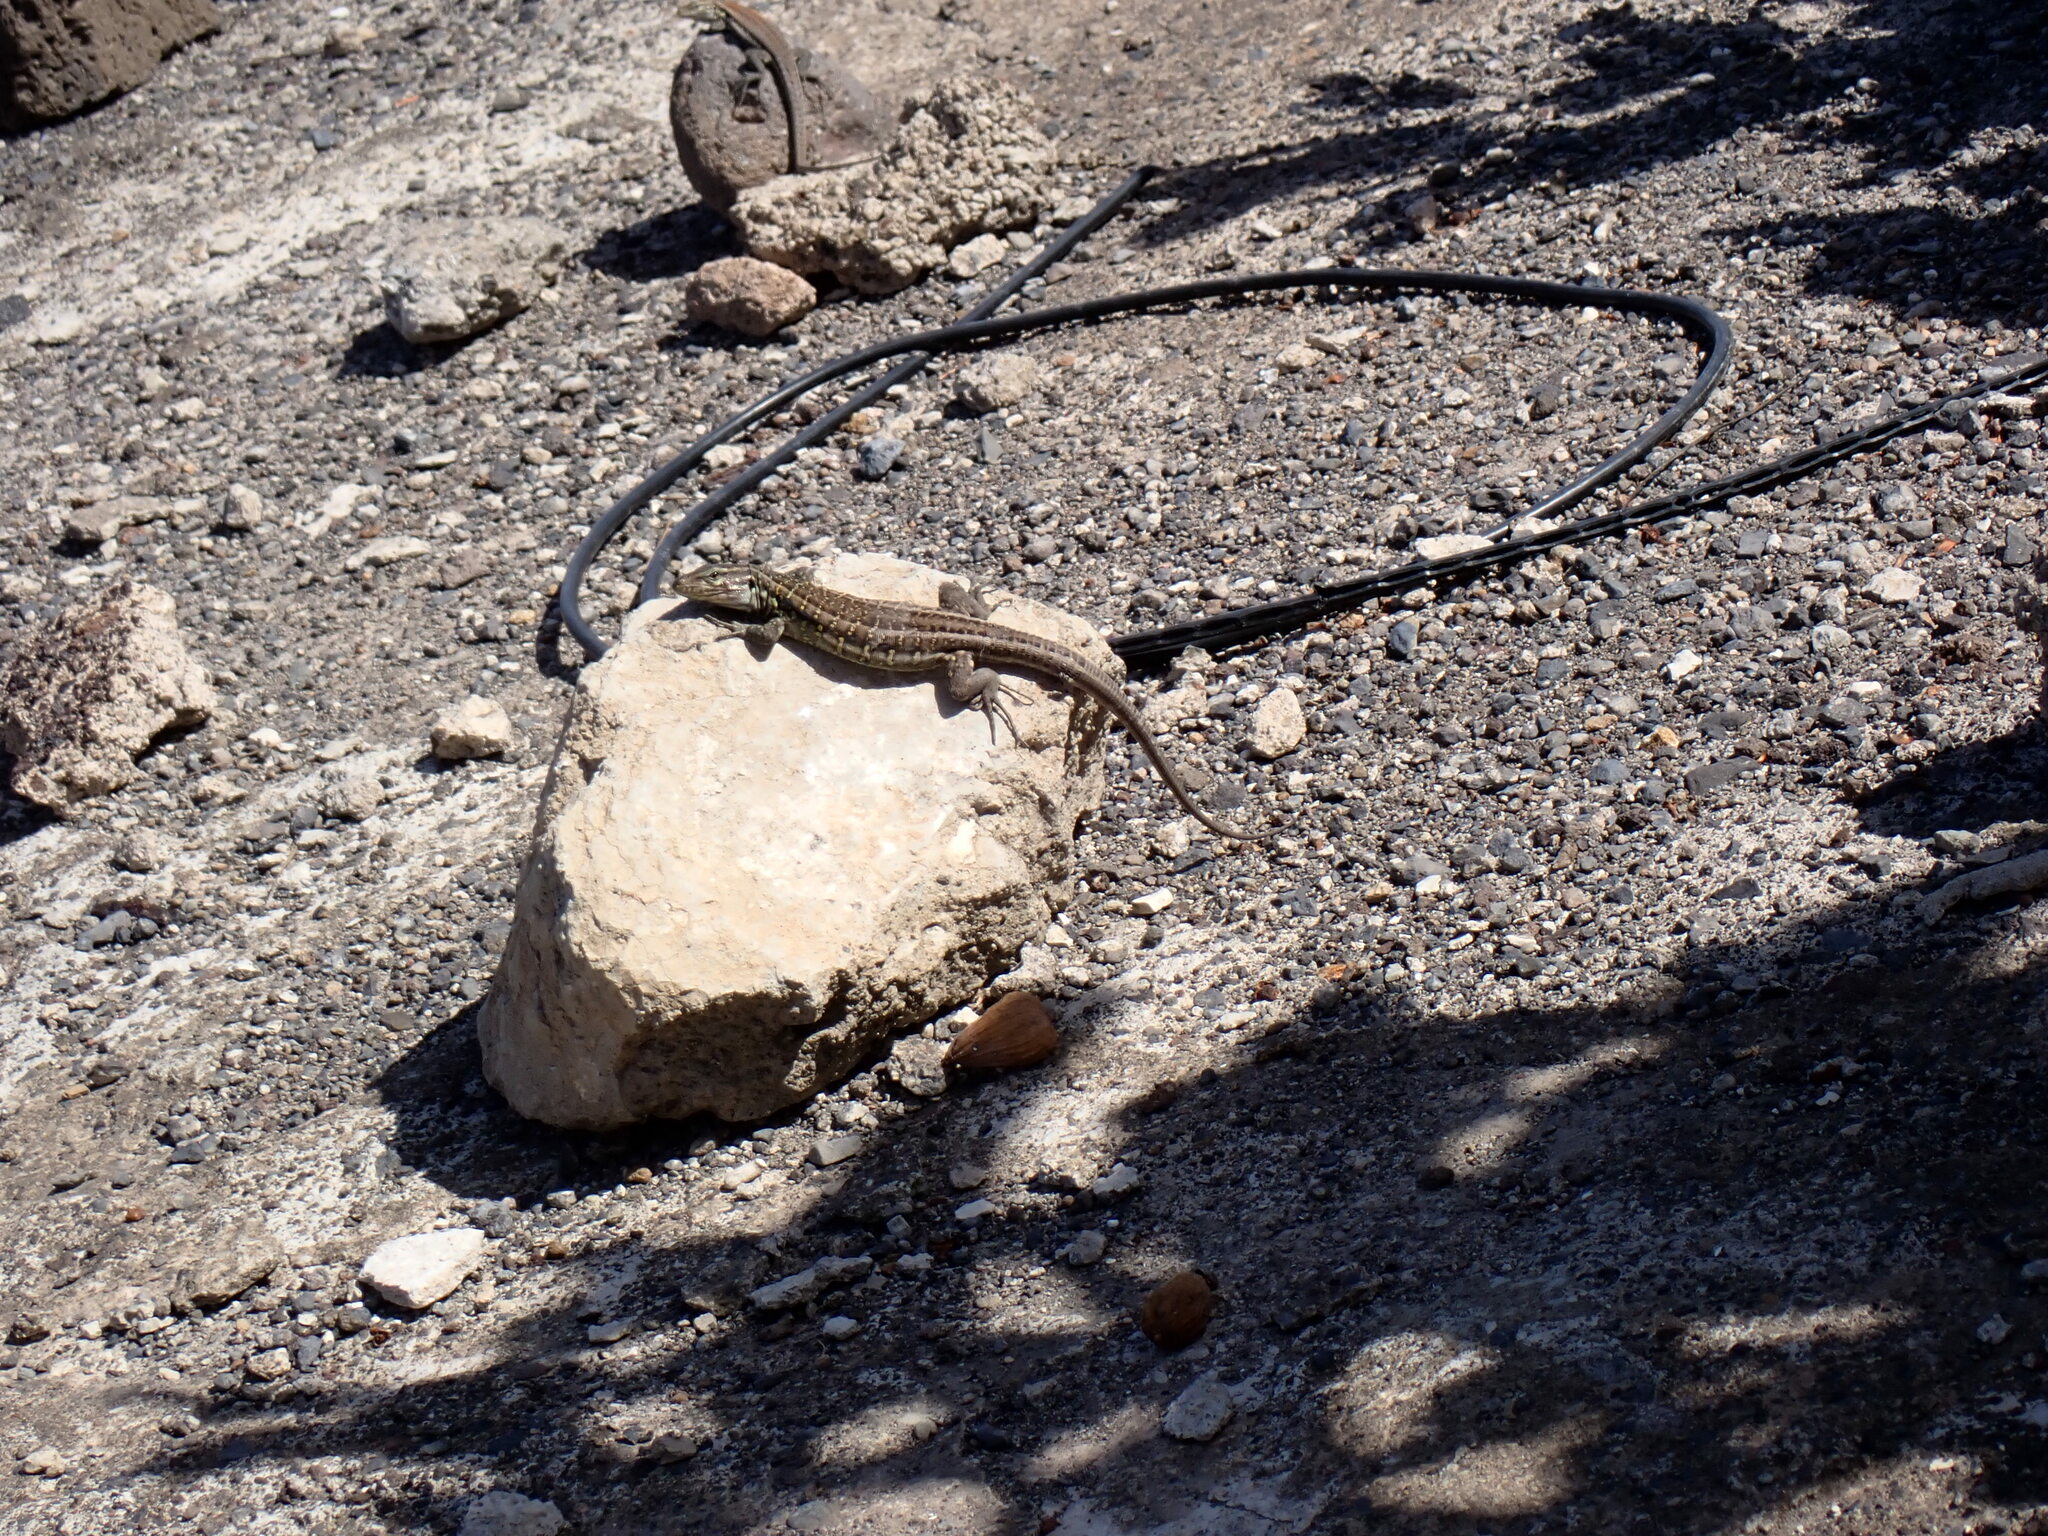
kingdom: Animalia
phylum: Chordata
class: Squamata
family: Lacertidae
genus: Gallotia
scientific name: Gallotia galloti
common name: Gallot's lizard
